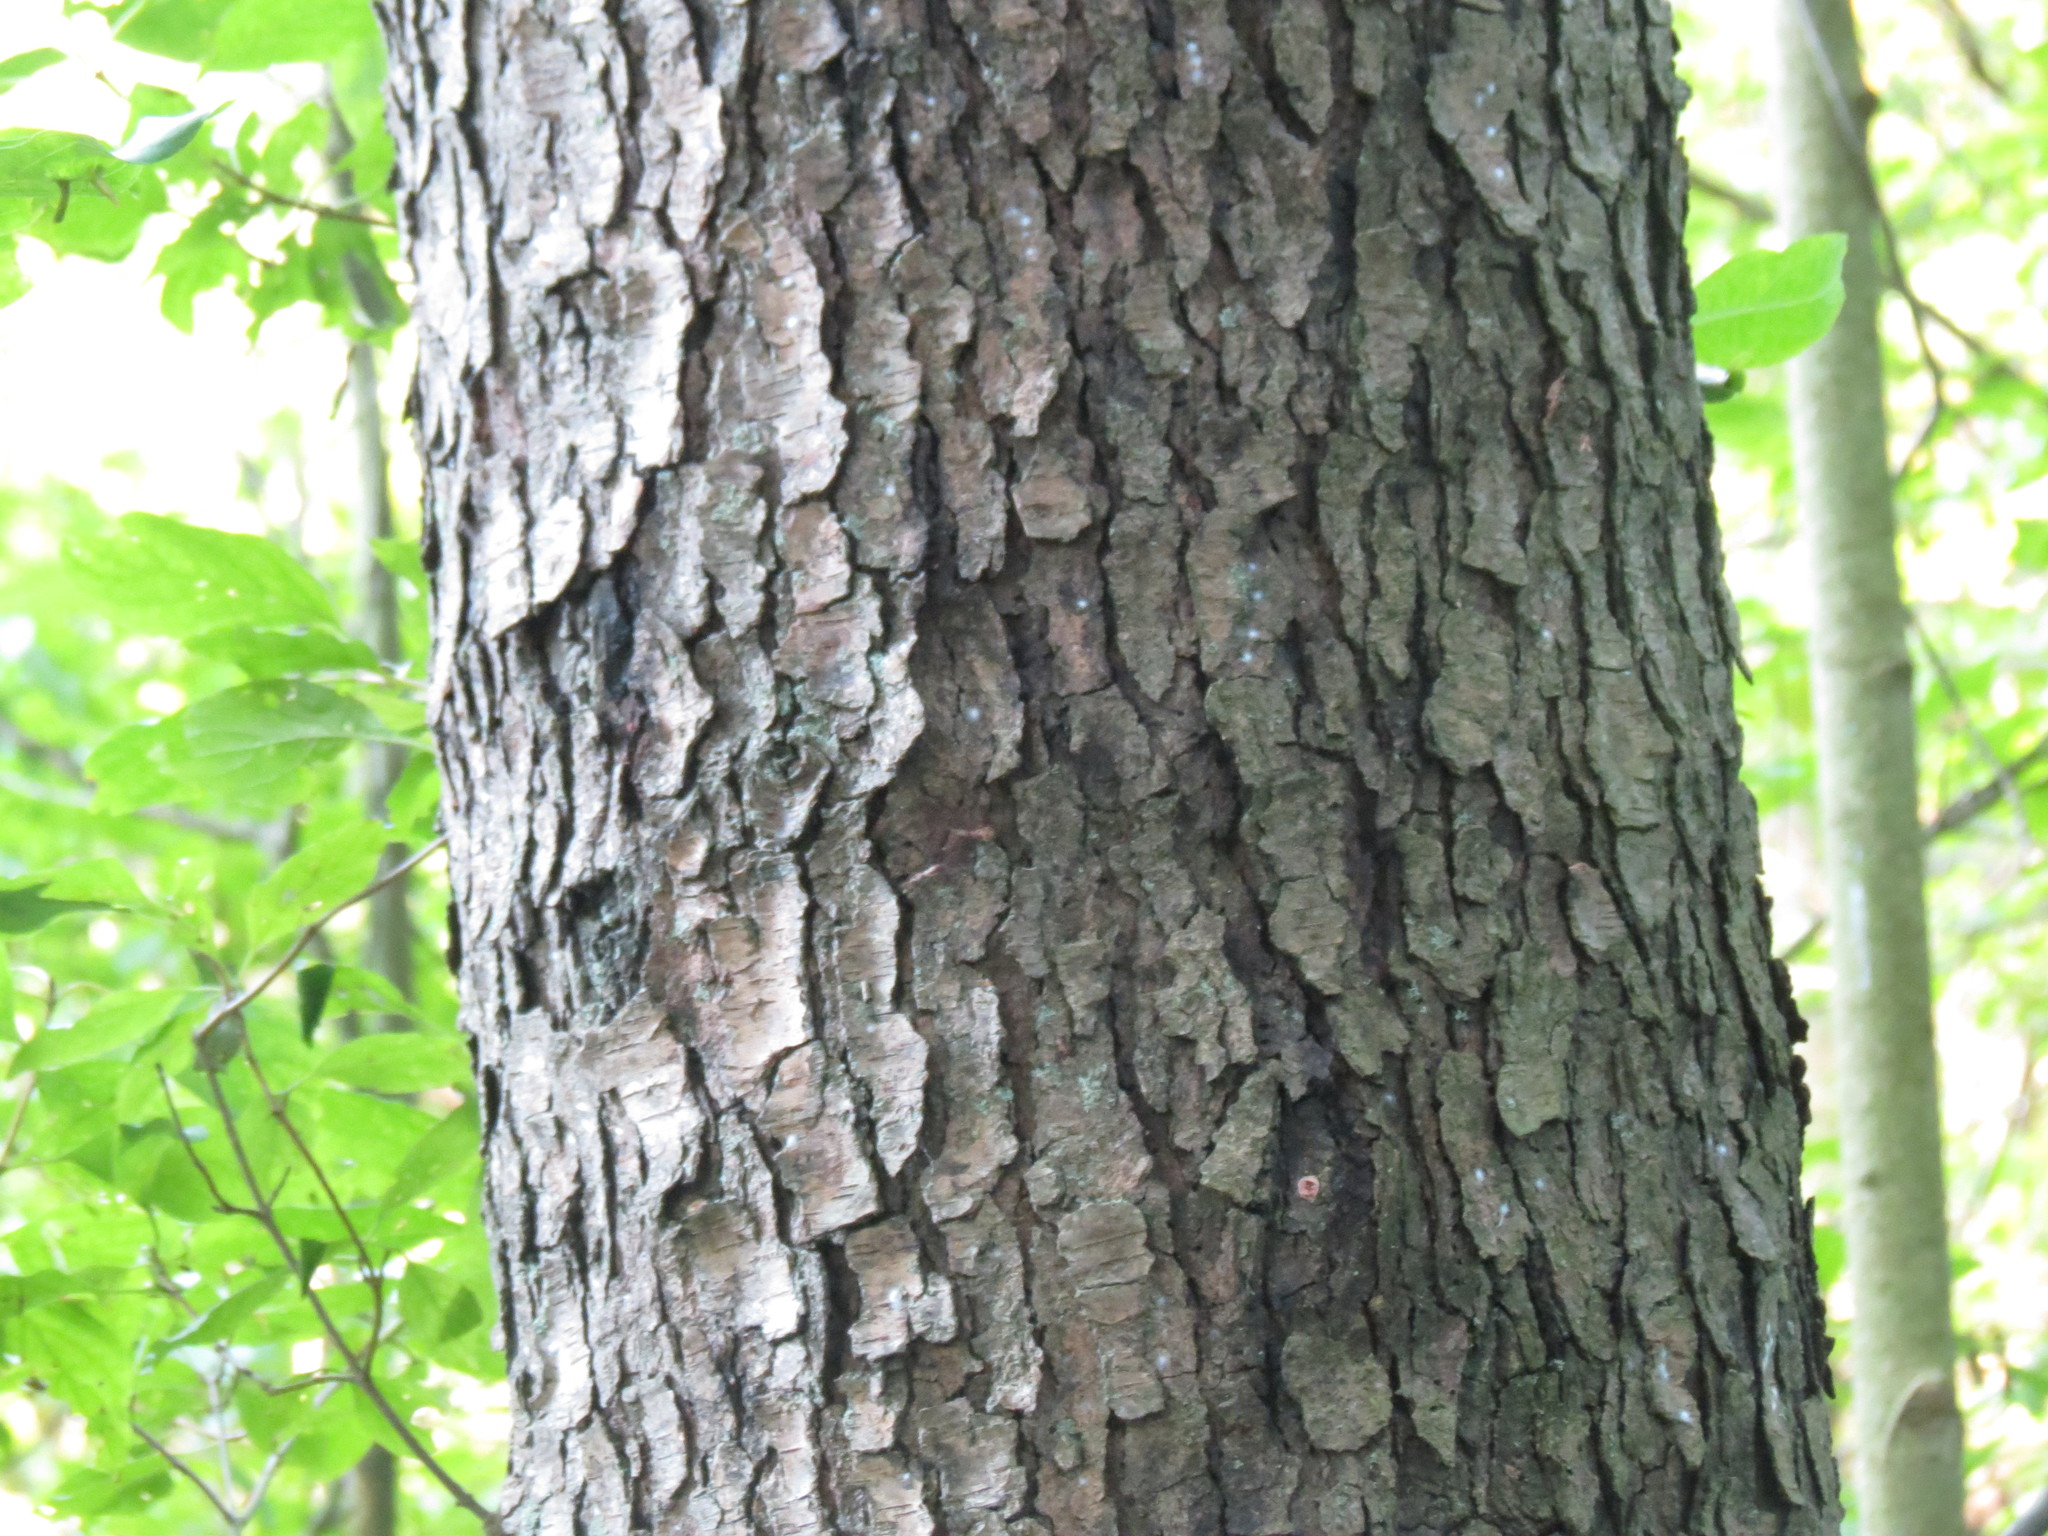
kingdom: Plantae
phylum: Tracheophyta
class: Magnoliopsida
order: Rosales
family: Rosaceae
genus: Prunus
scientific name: Prunus serotina
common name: Black cherry
